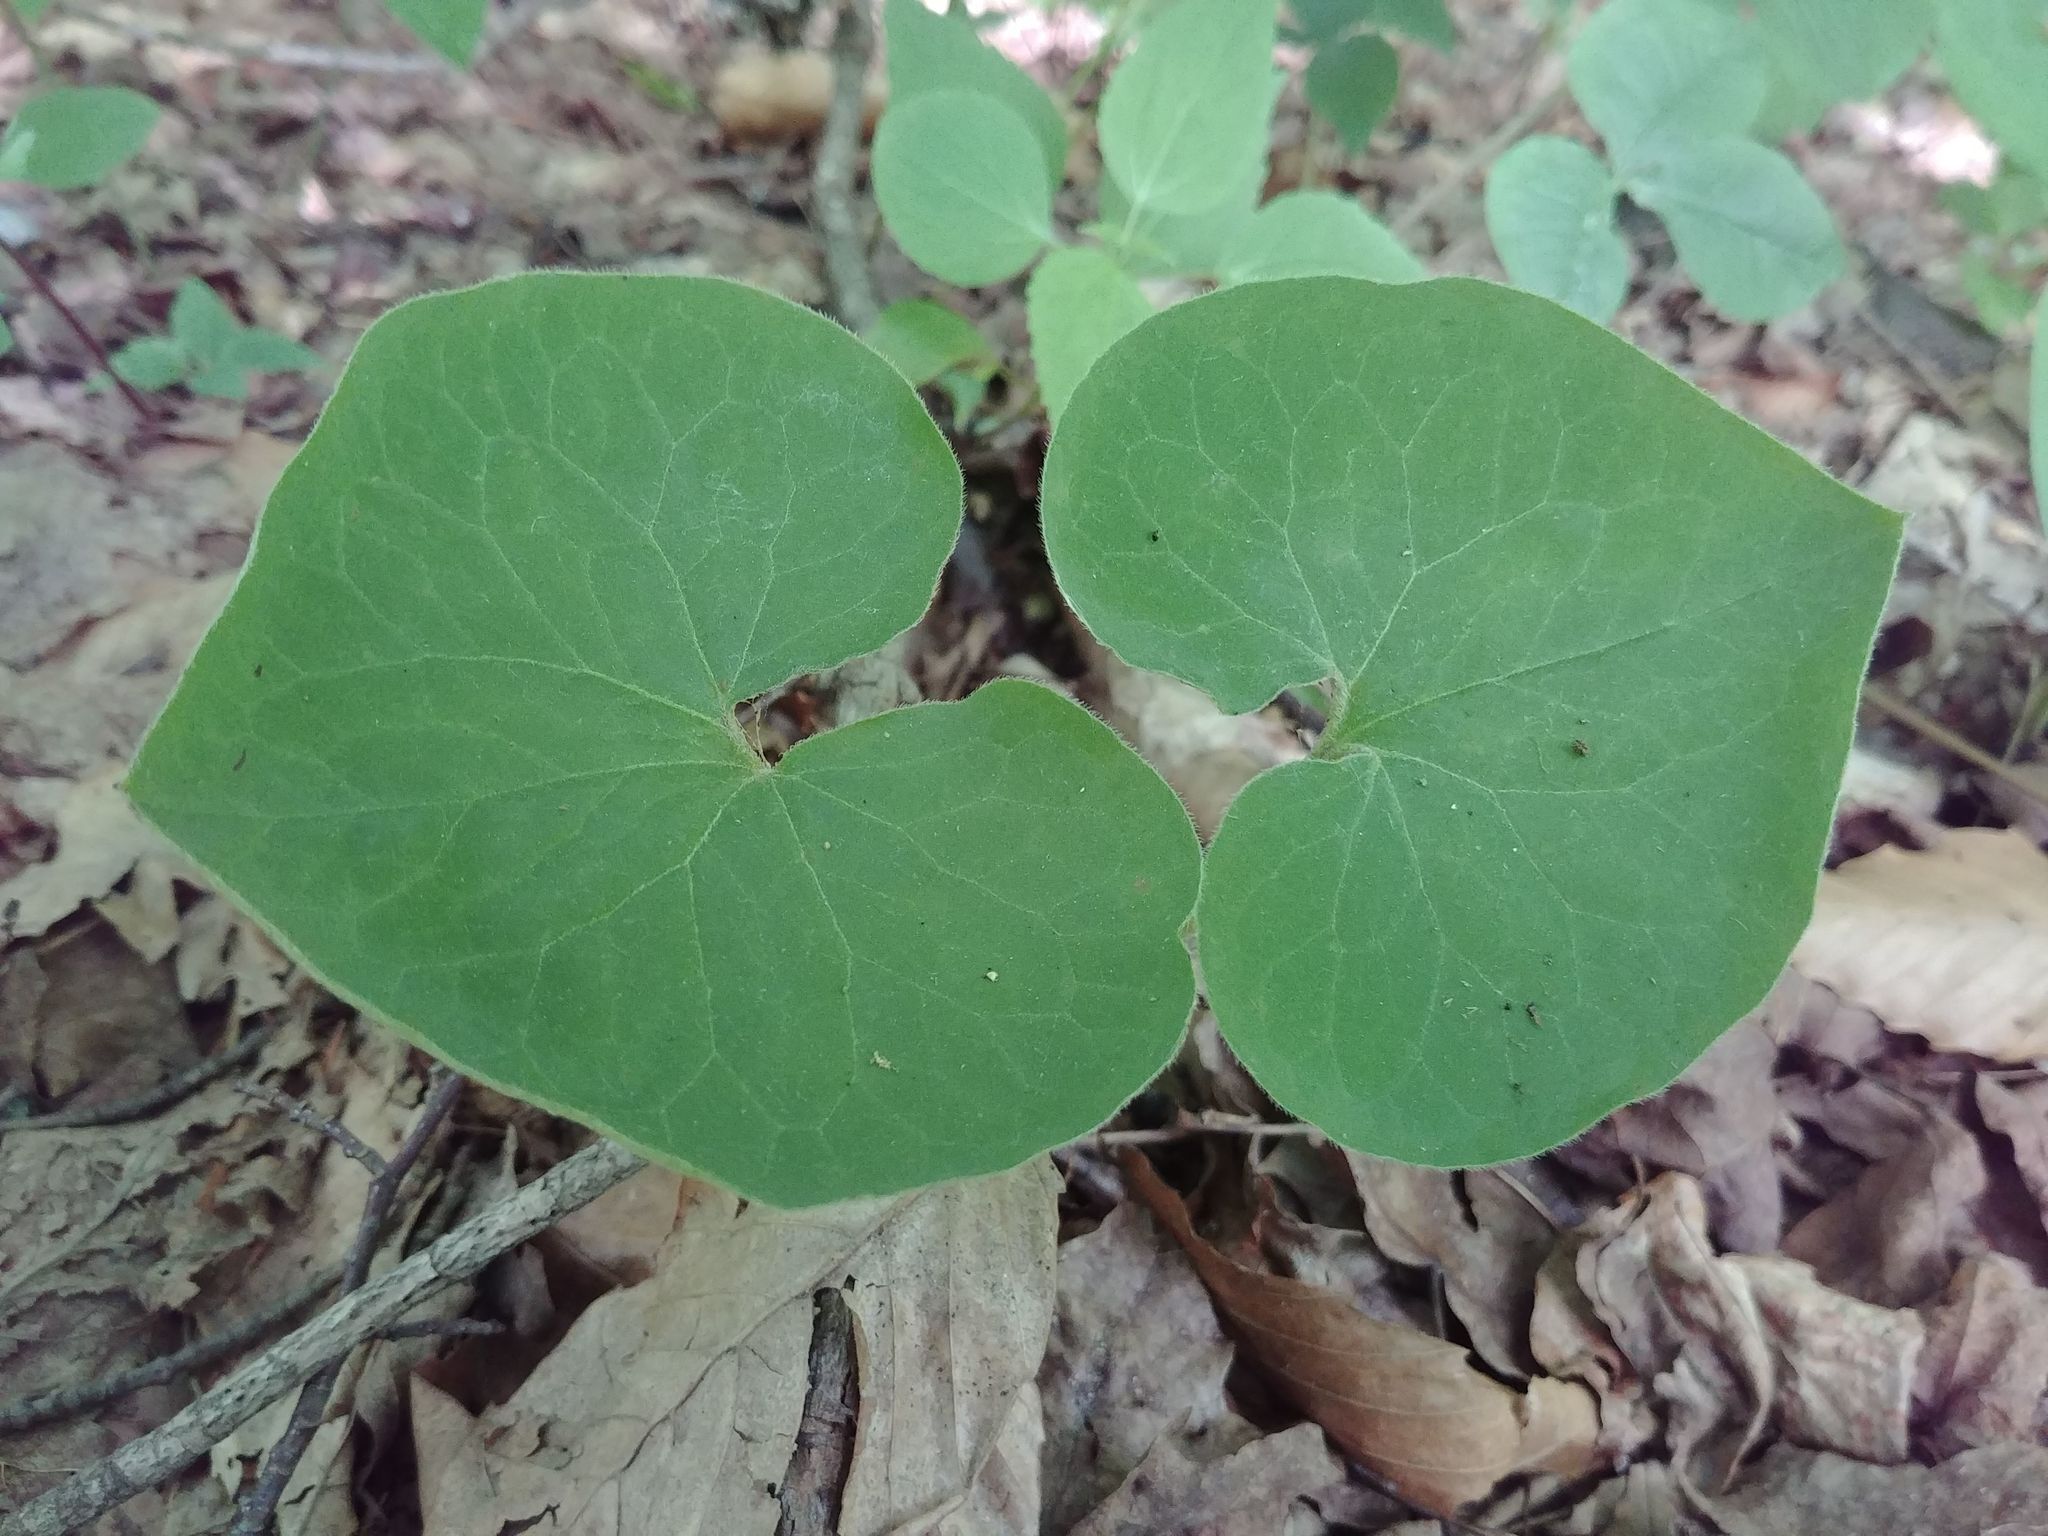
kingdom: Plantae
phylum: Tracheophyta
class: Magnoliopsida
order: Piperales
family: Aristolochiaceae
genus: Asarum
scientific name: Asarum canadense
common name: Wild ginger
